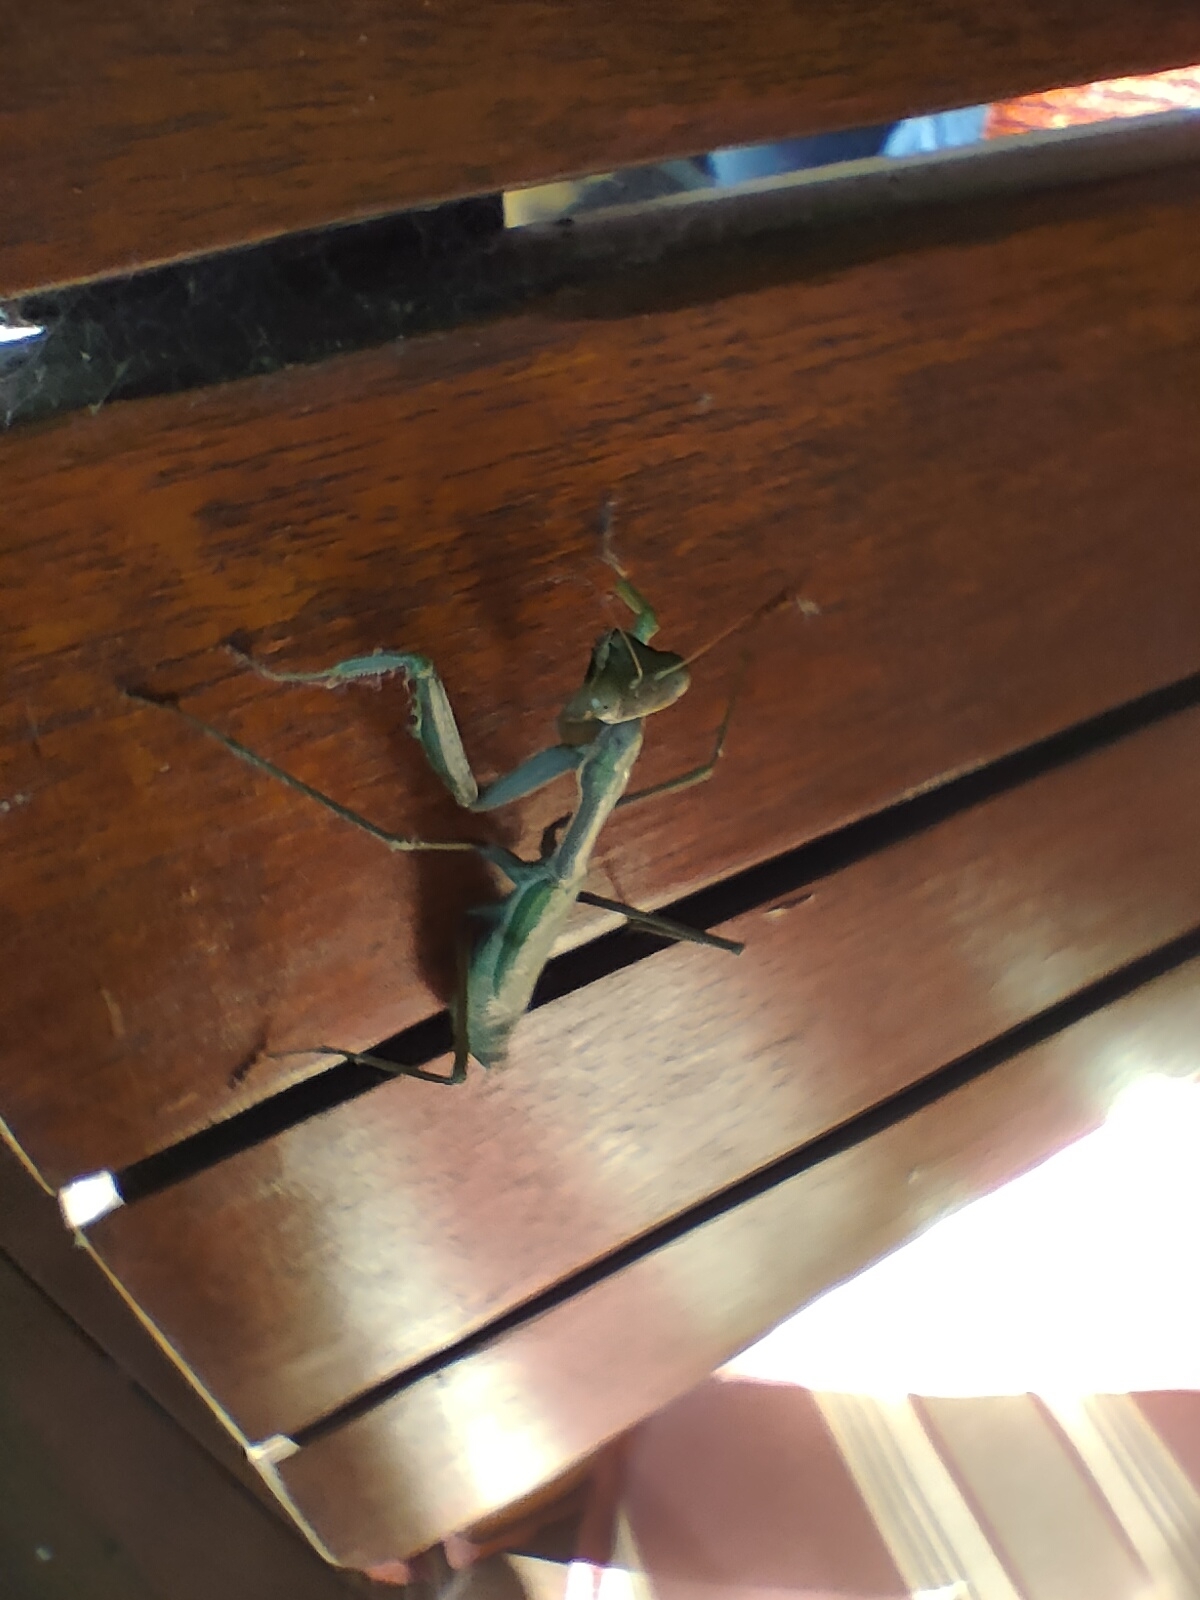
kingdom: Animalia
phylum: Arthropoda
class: Insecta
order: Mantodea
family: Mantidae
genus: Pseudomantis
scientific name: Pseudomantis albofimbriata
